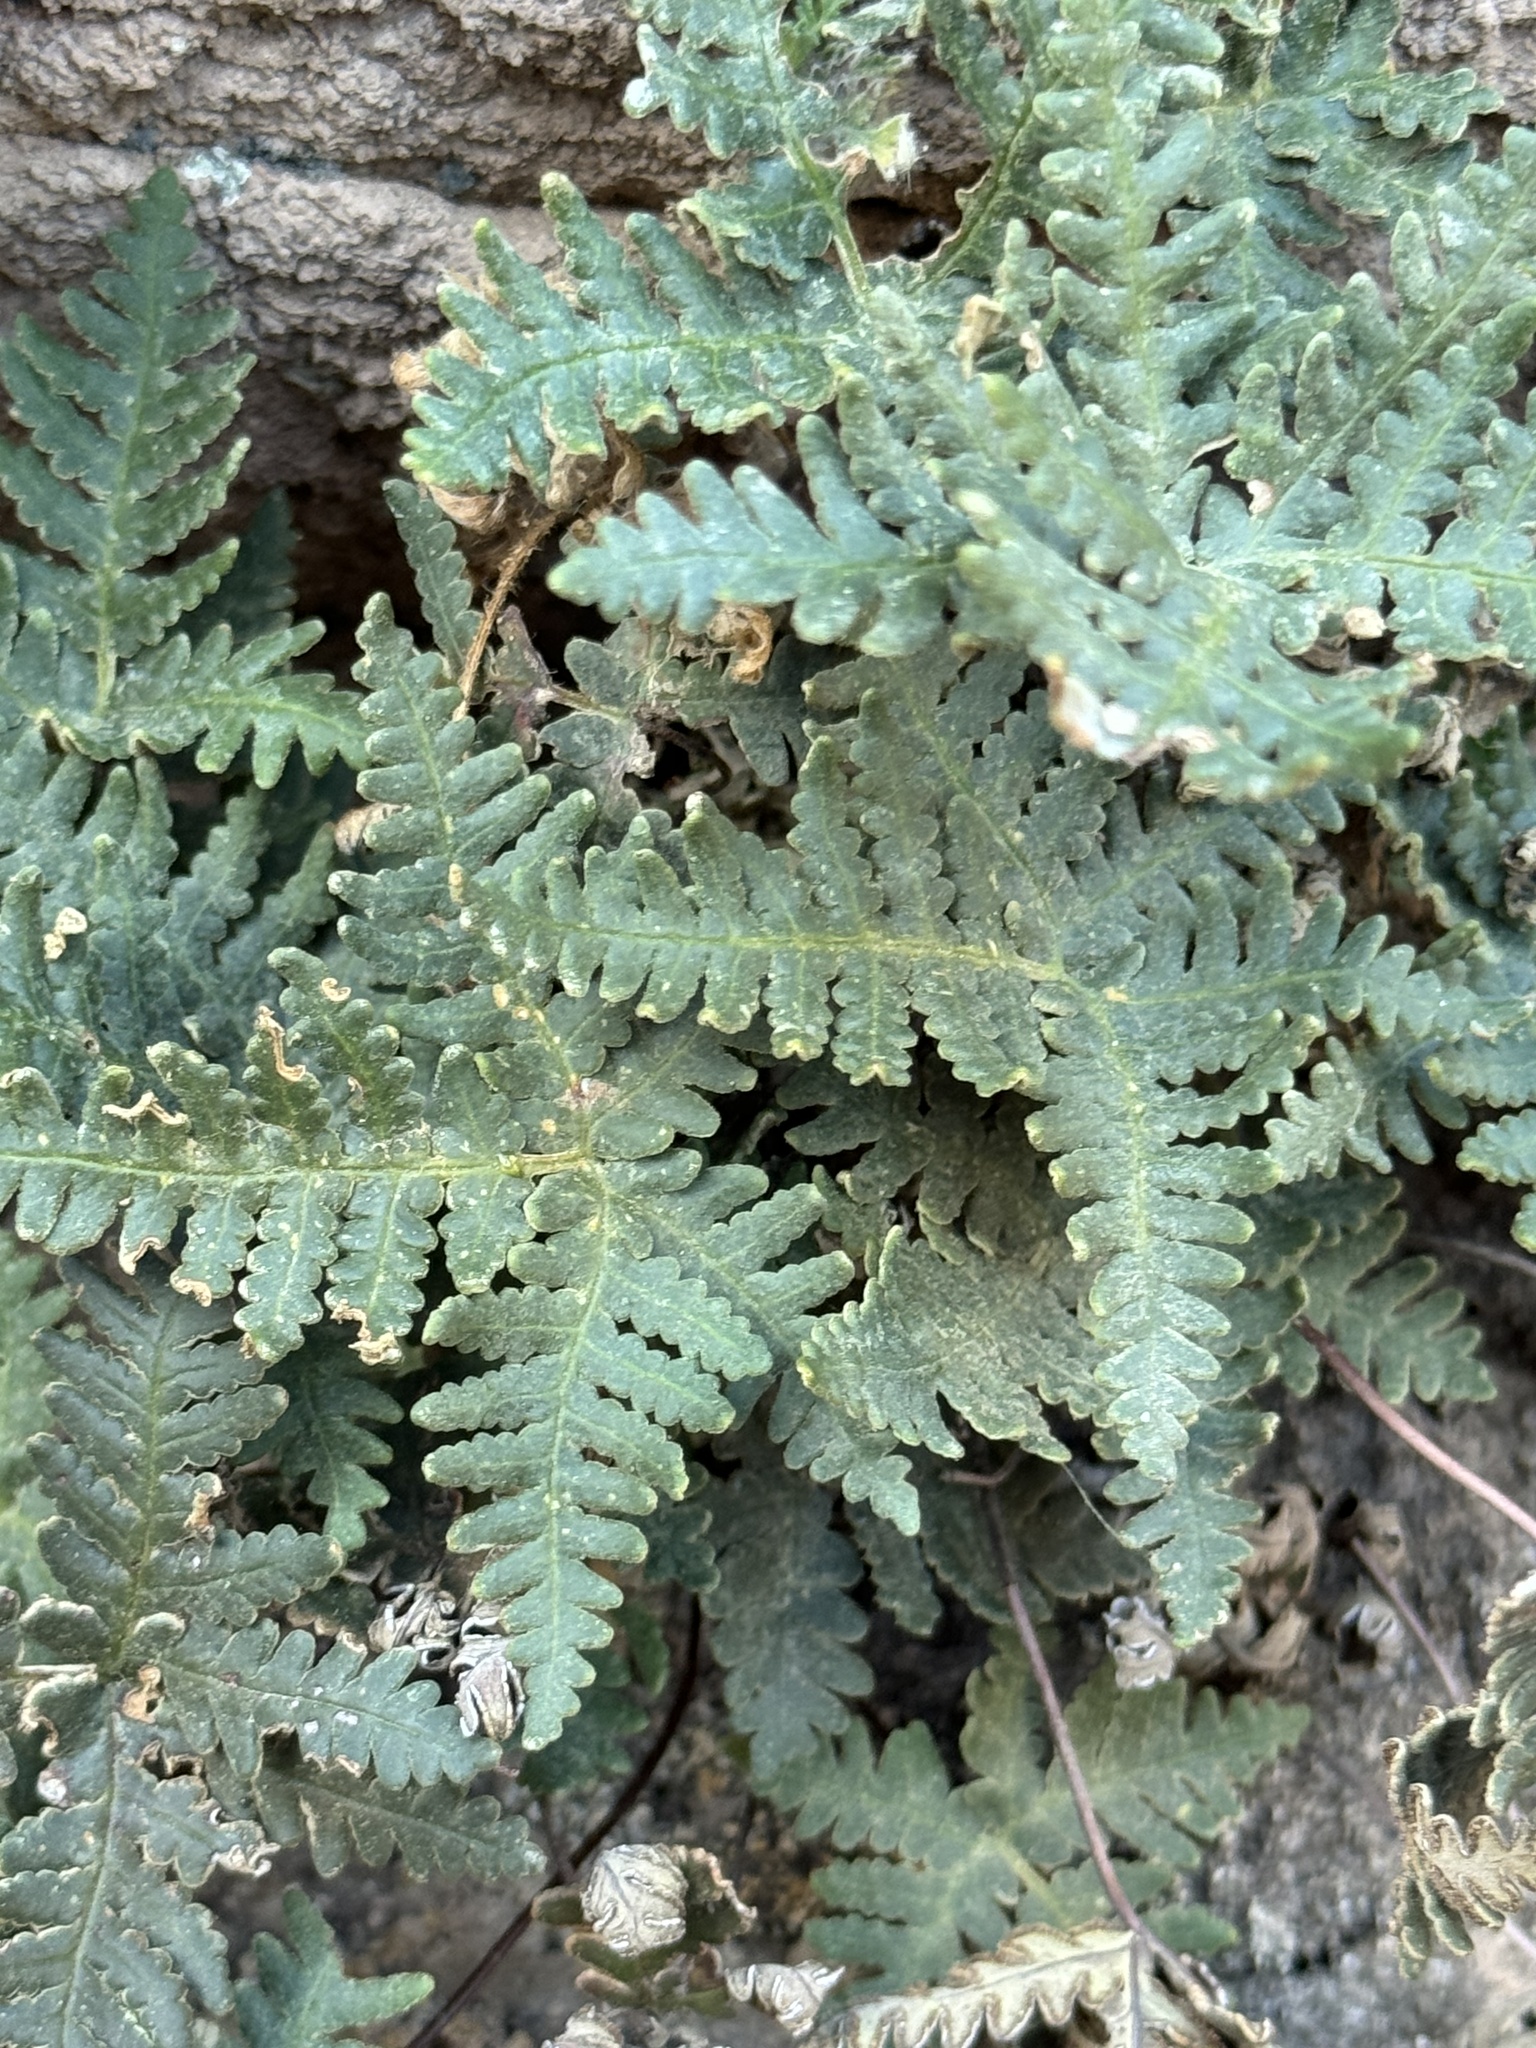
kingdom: Plantae
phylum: Tracheophyta
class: Polypodiopsida
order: Polypodiales
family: Pteridaceae
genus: Notholaena
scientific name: Notholaena standleyi
